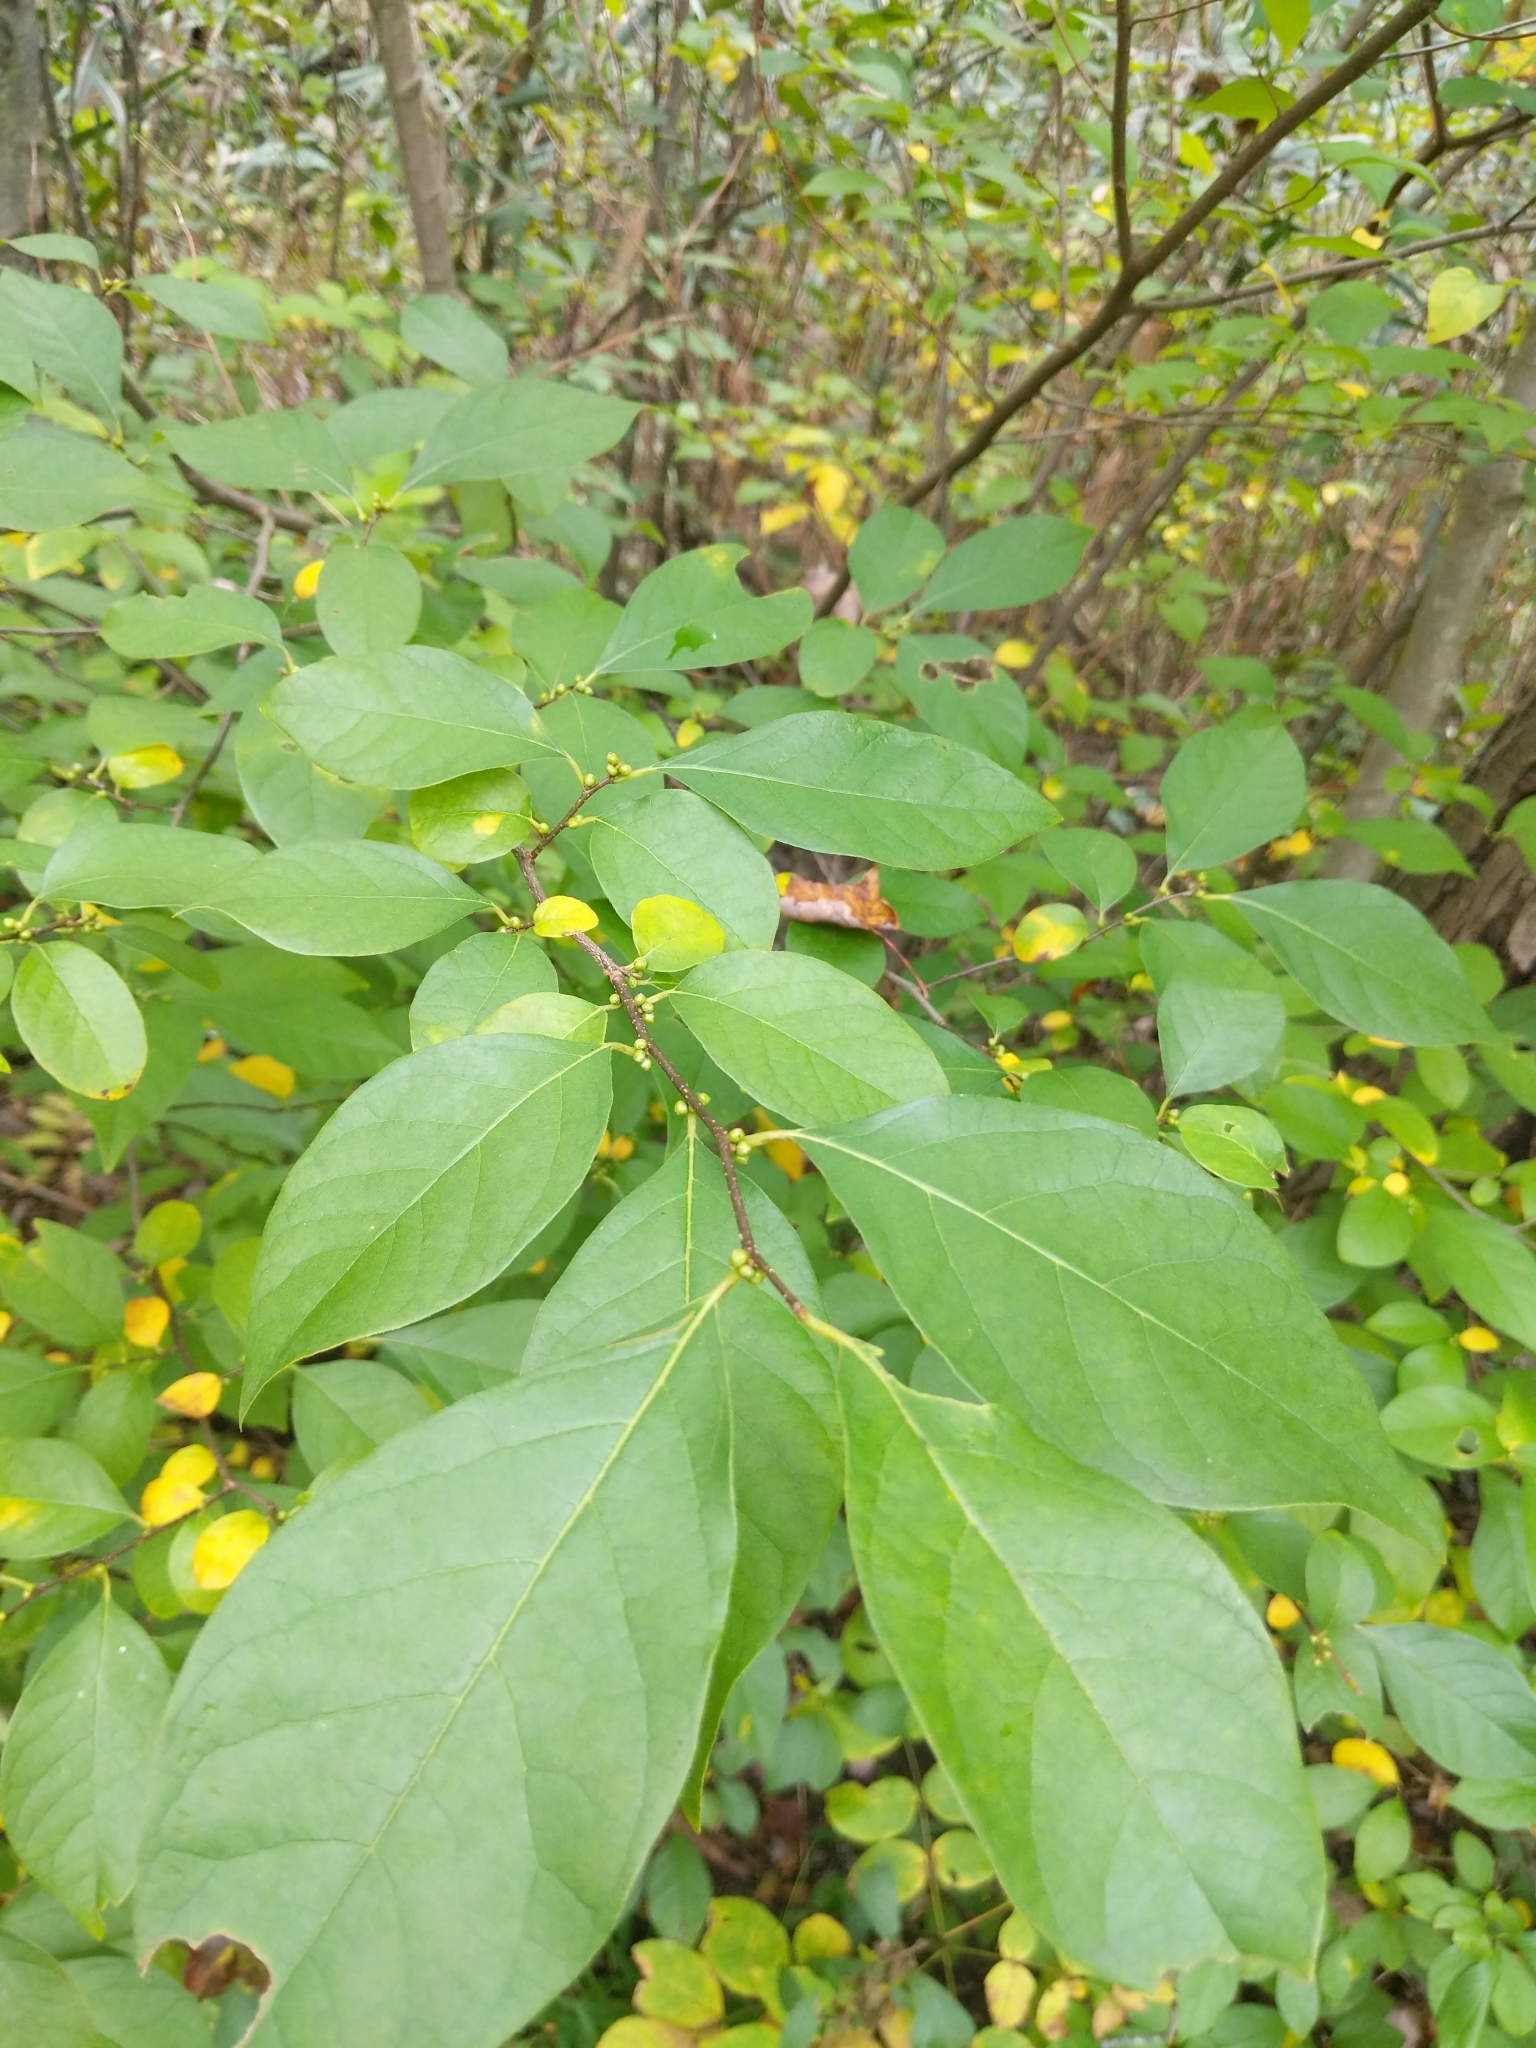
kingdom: Plantae
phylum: Tracheophyta
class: Magnoliopsida
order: Laurales
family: Lauraceae
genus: Lindera
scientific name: Lindera benzoin
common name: Spicebush
